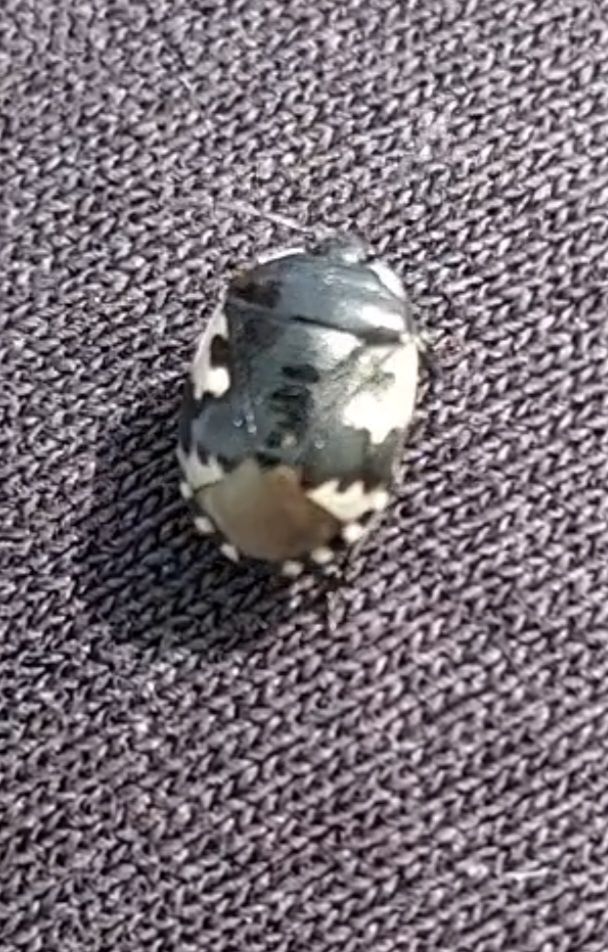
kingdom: Animalia
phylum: Arthropoda
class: Insecta
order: Hemiptera
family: Cydnidae
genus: Tritomegas
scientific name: Tritomegas bicolor
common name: Pied shieldbug
